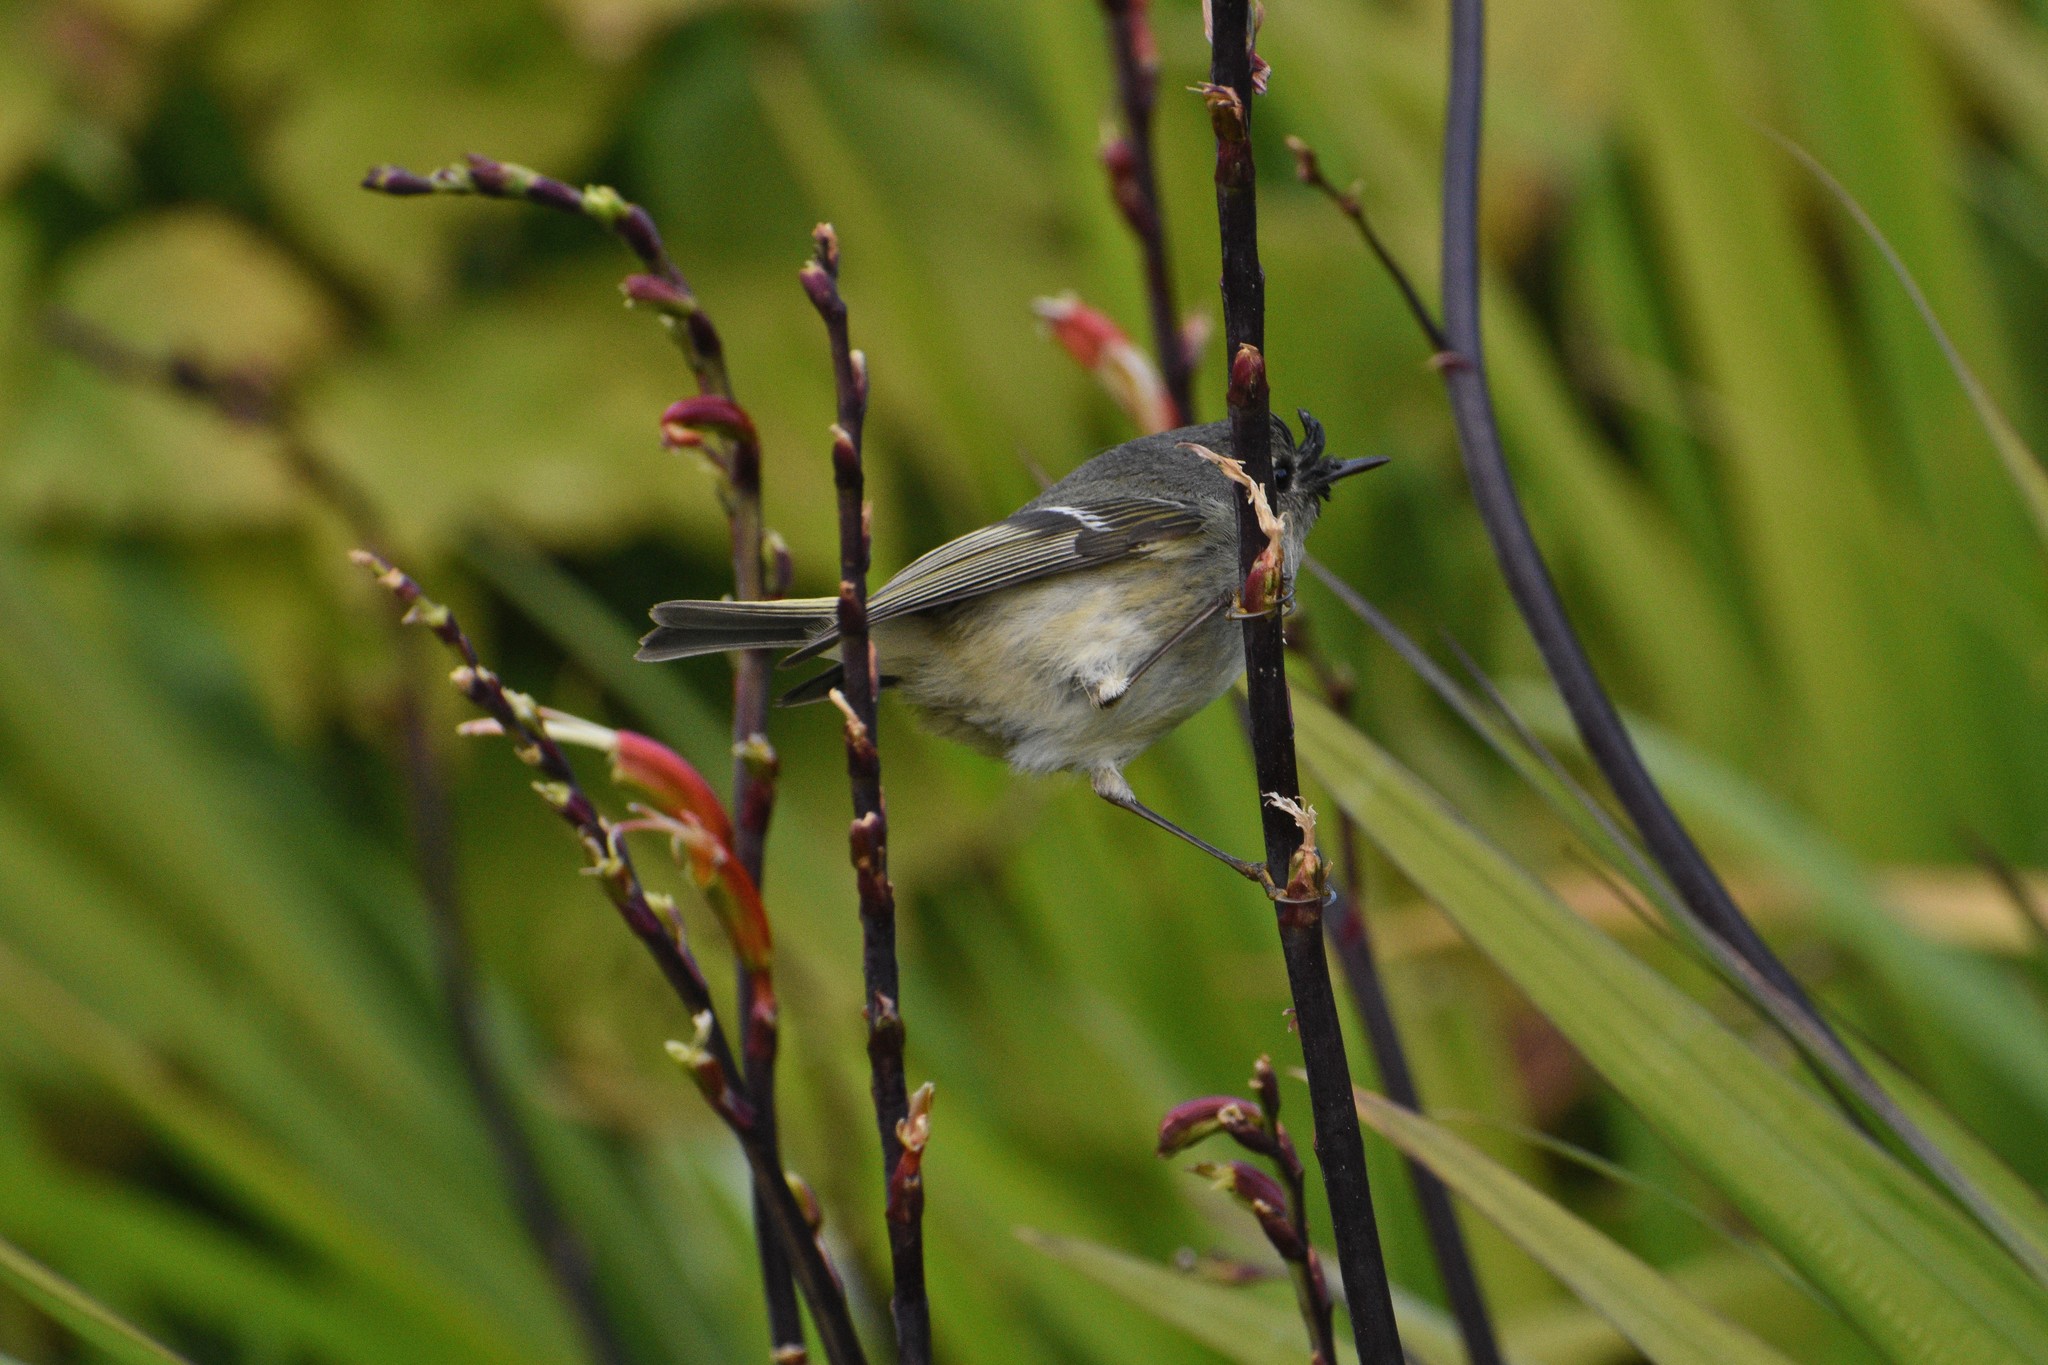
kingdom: Animalia
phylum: Chordata
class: Aves
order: Passeriformes
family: Regulidae
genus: Regulus
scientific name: Regulus calendula
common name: Ruby-crowned kinglet
